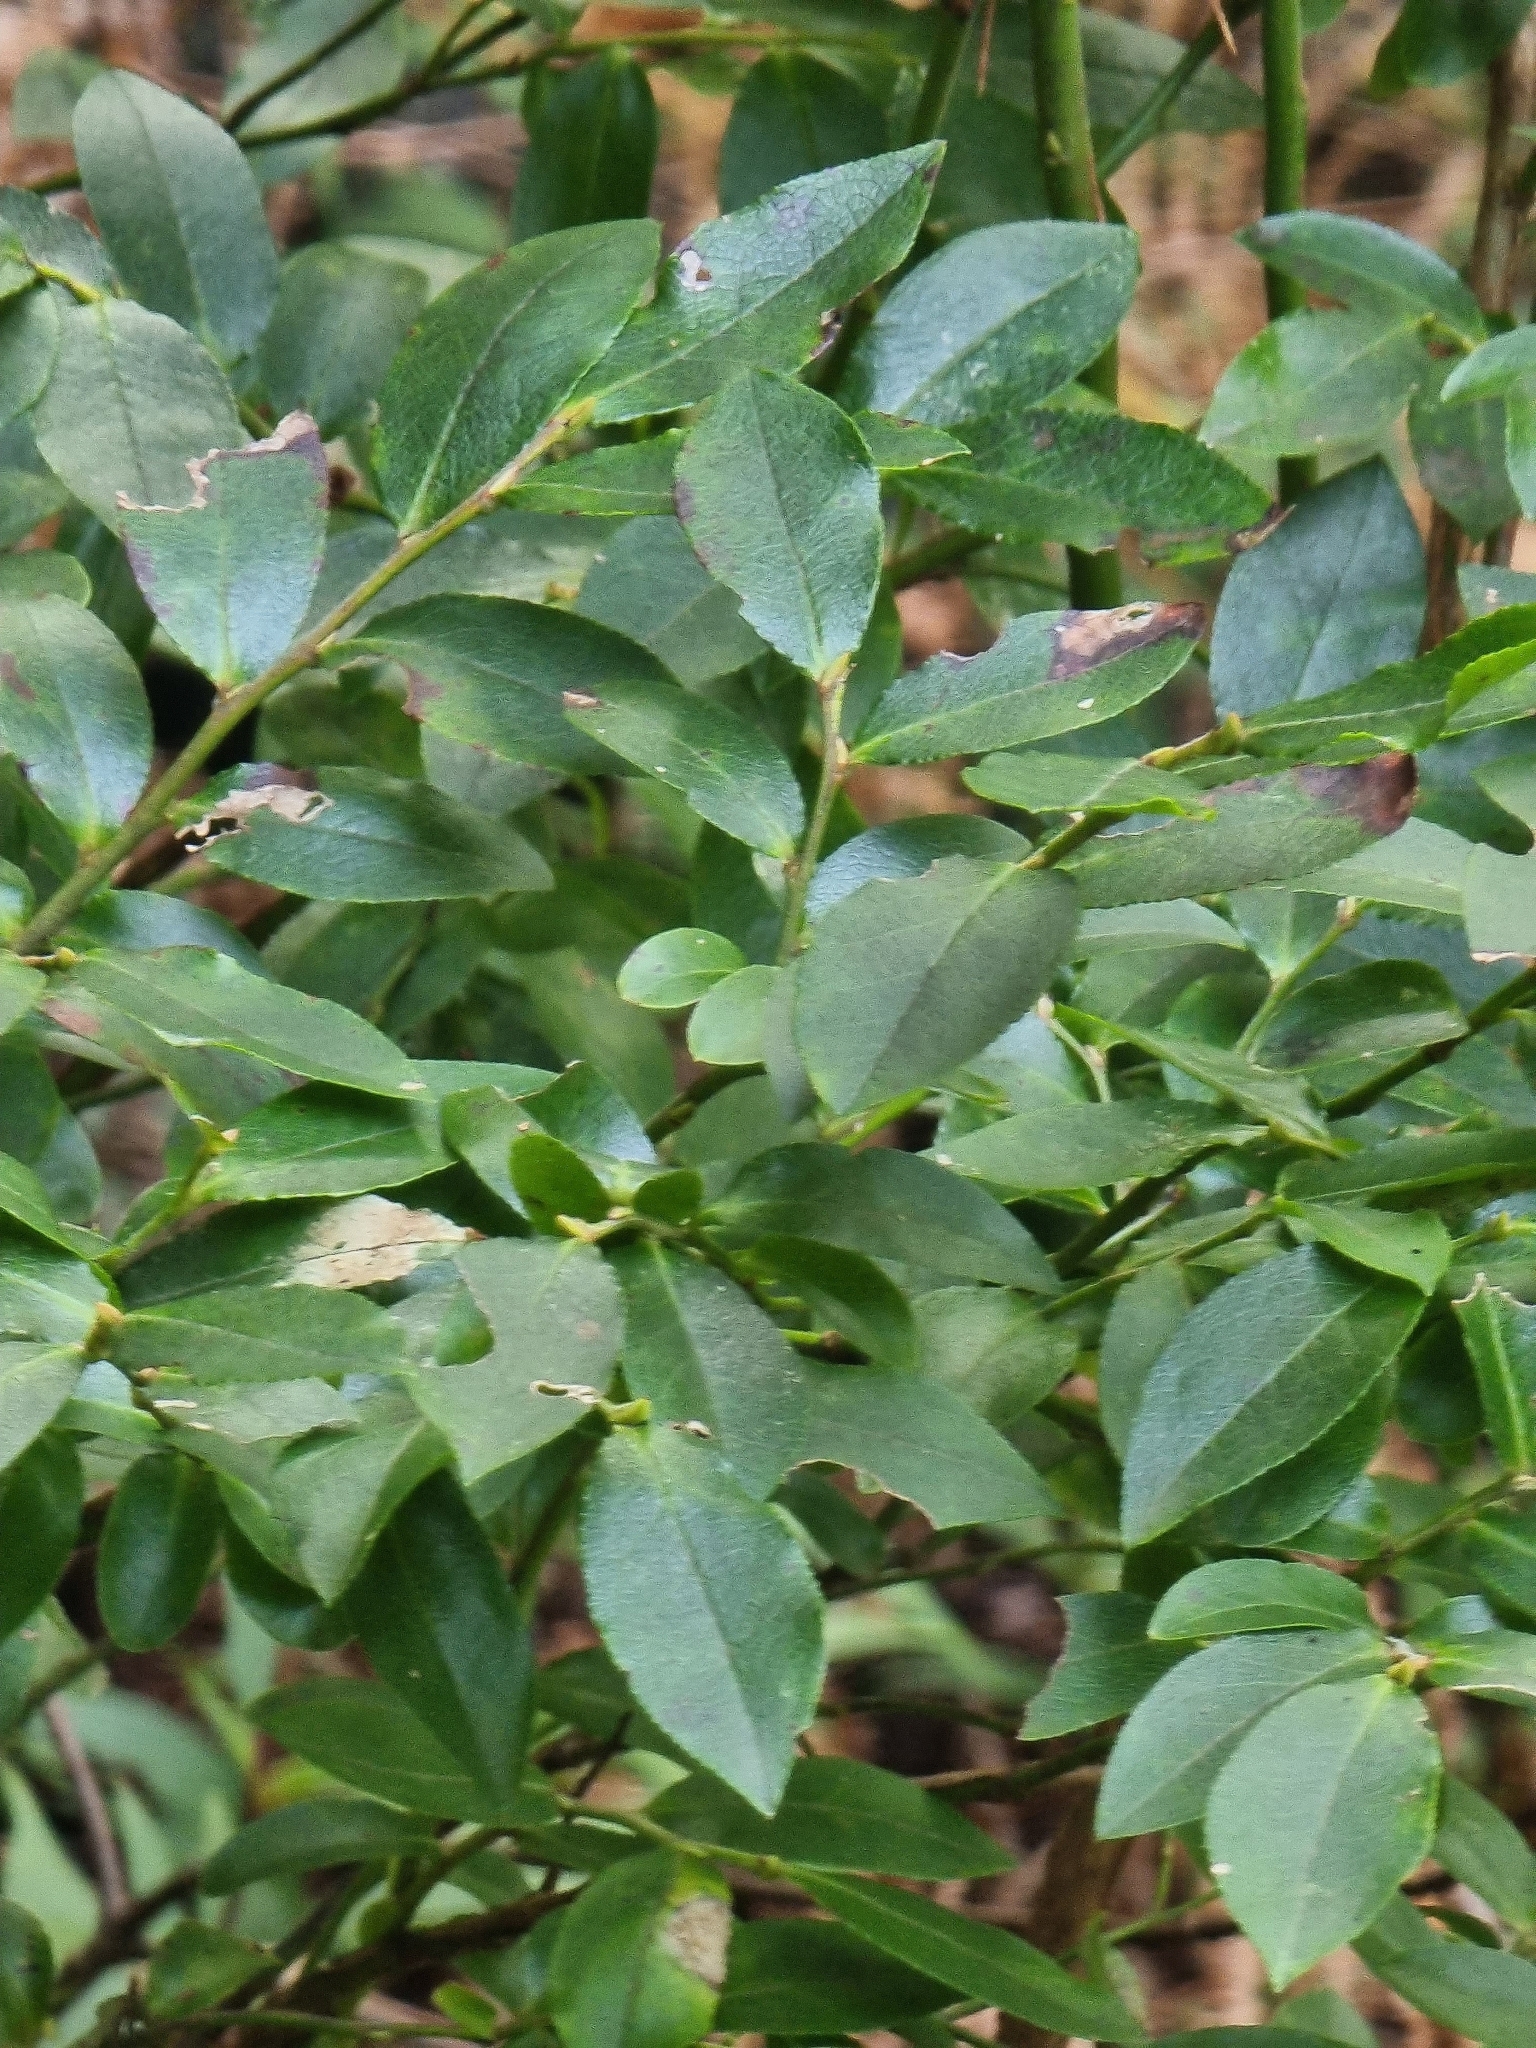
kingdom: Plantae
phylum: Tracheophyta
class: Magnoliopsida
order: Ericales
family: Ericaceae
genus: Vaccinium
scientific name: Vaccinium padifolium
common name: Madeiran blueberry
